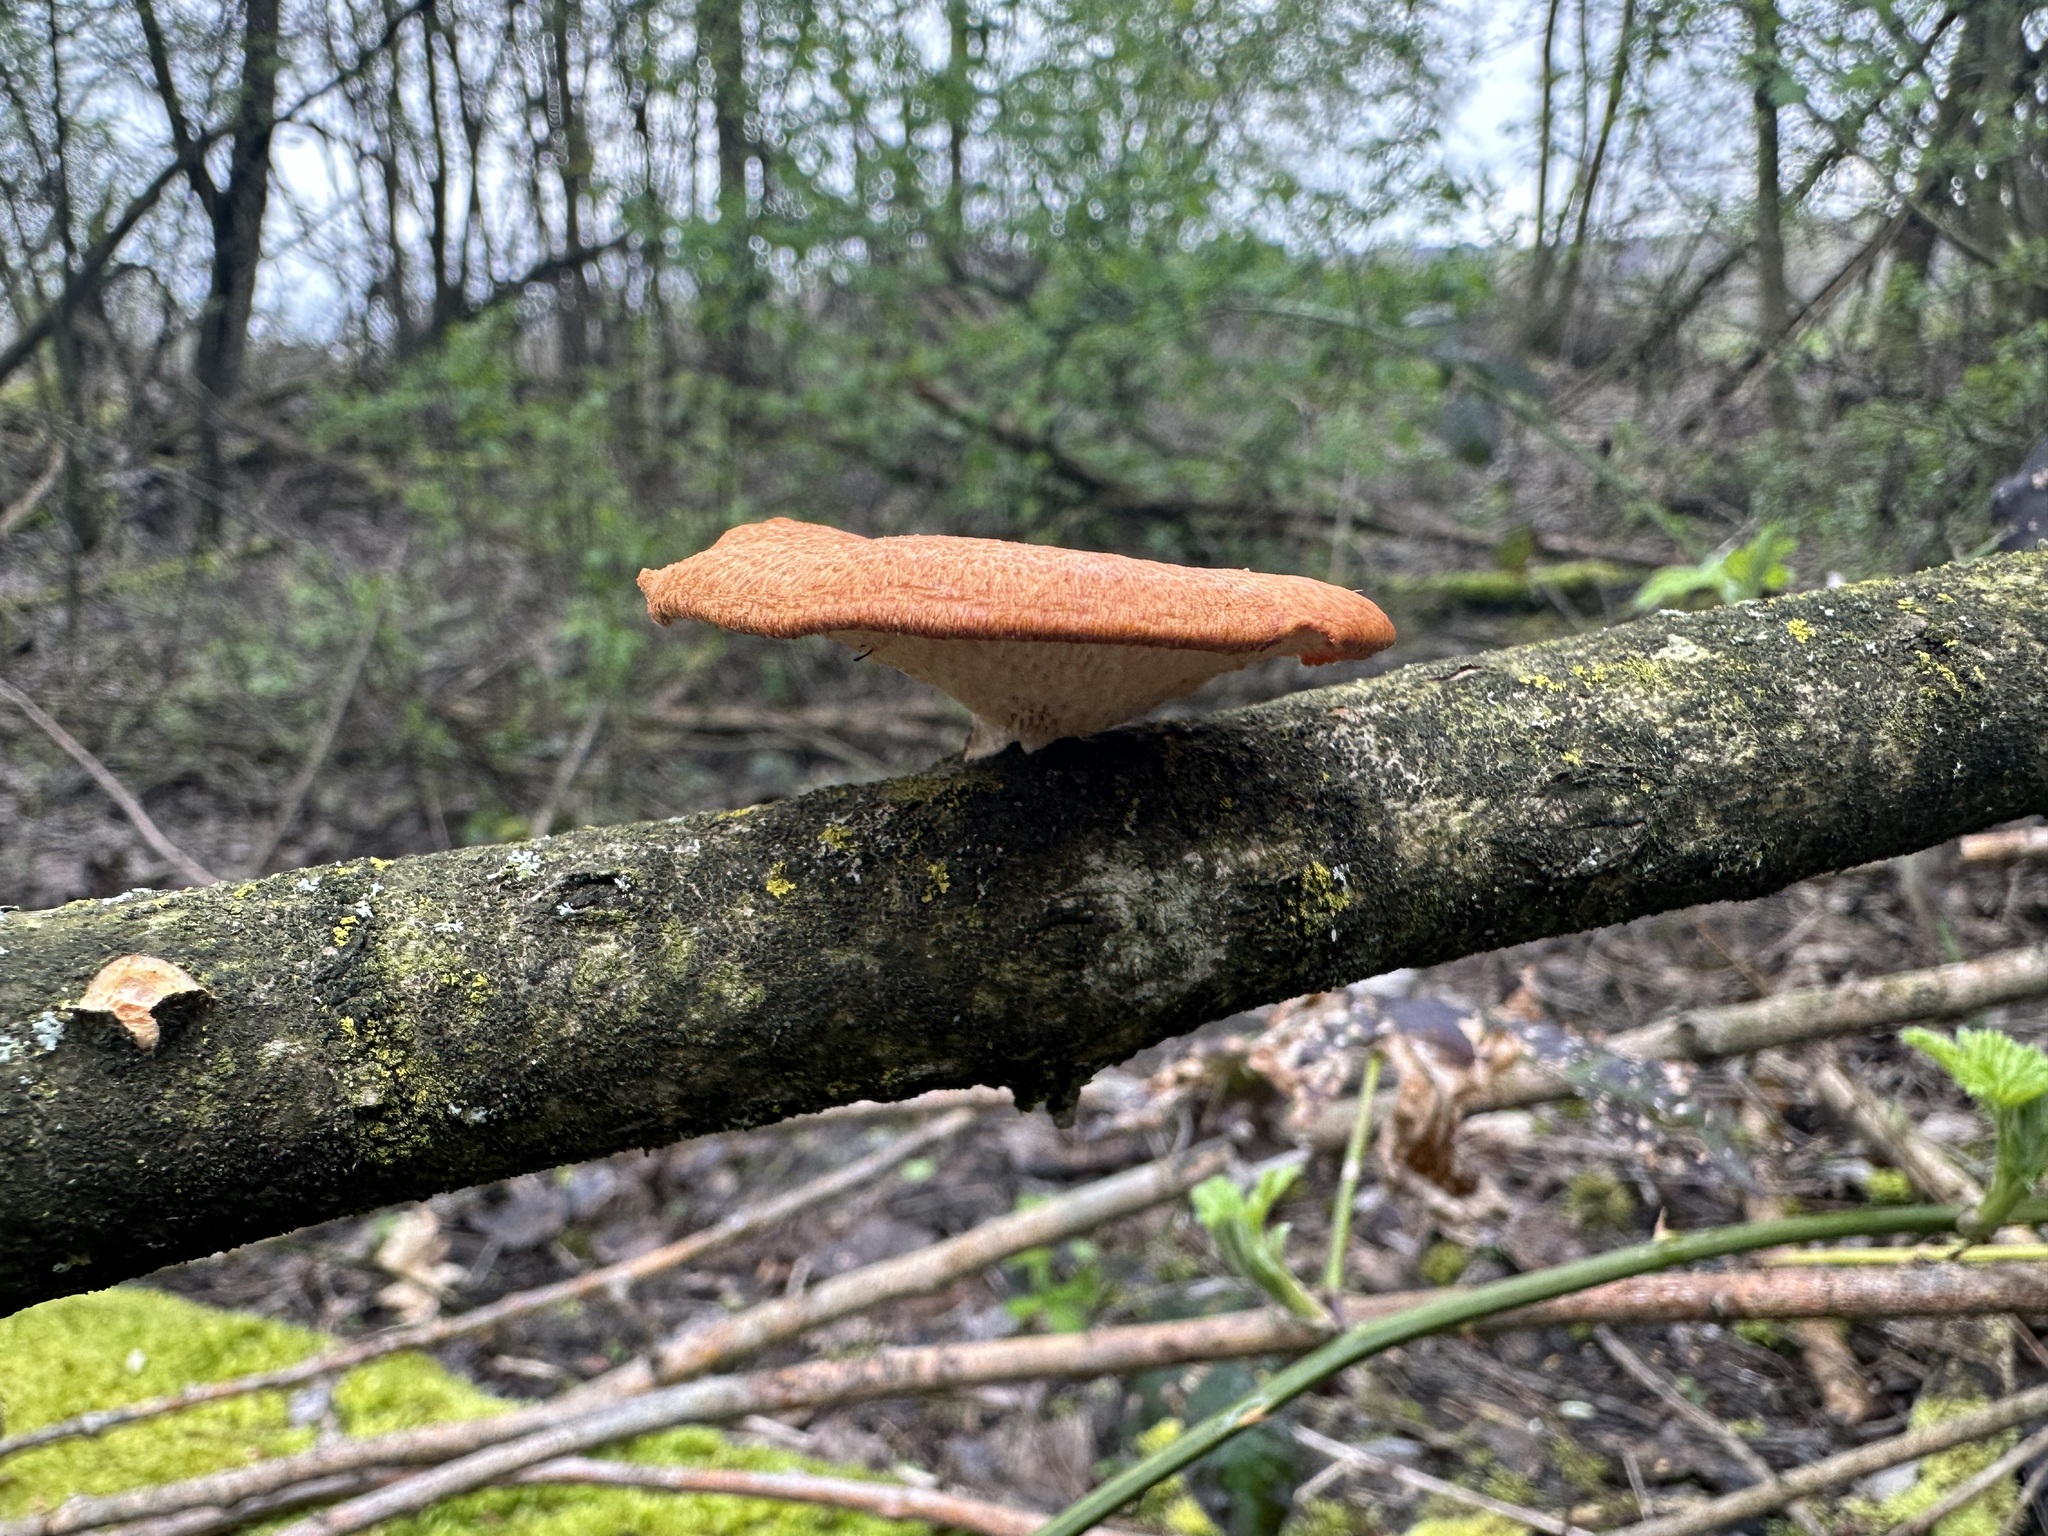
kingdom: Fungi
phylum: Basidiomycota
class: Agaricomycetes
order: Polyporales
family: Polyporaceae
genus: Neofavolus
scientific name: Neofavolus alveolaris
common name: Hexagonal-pored polypore
